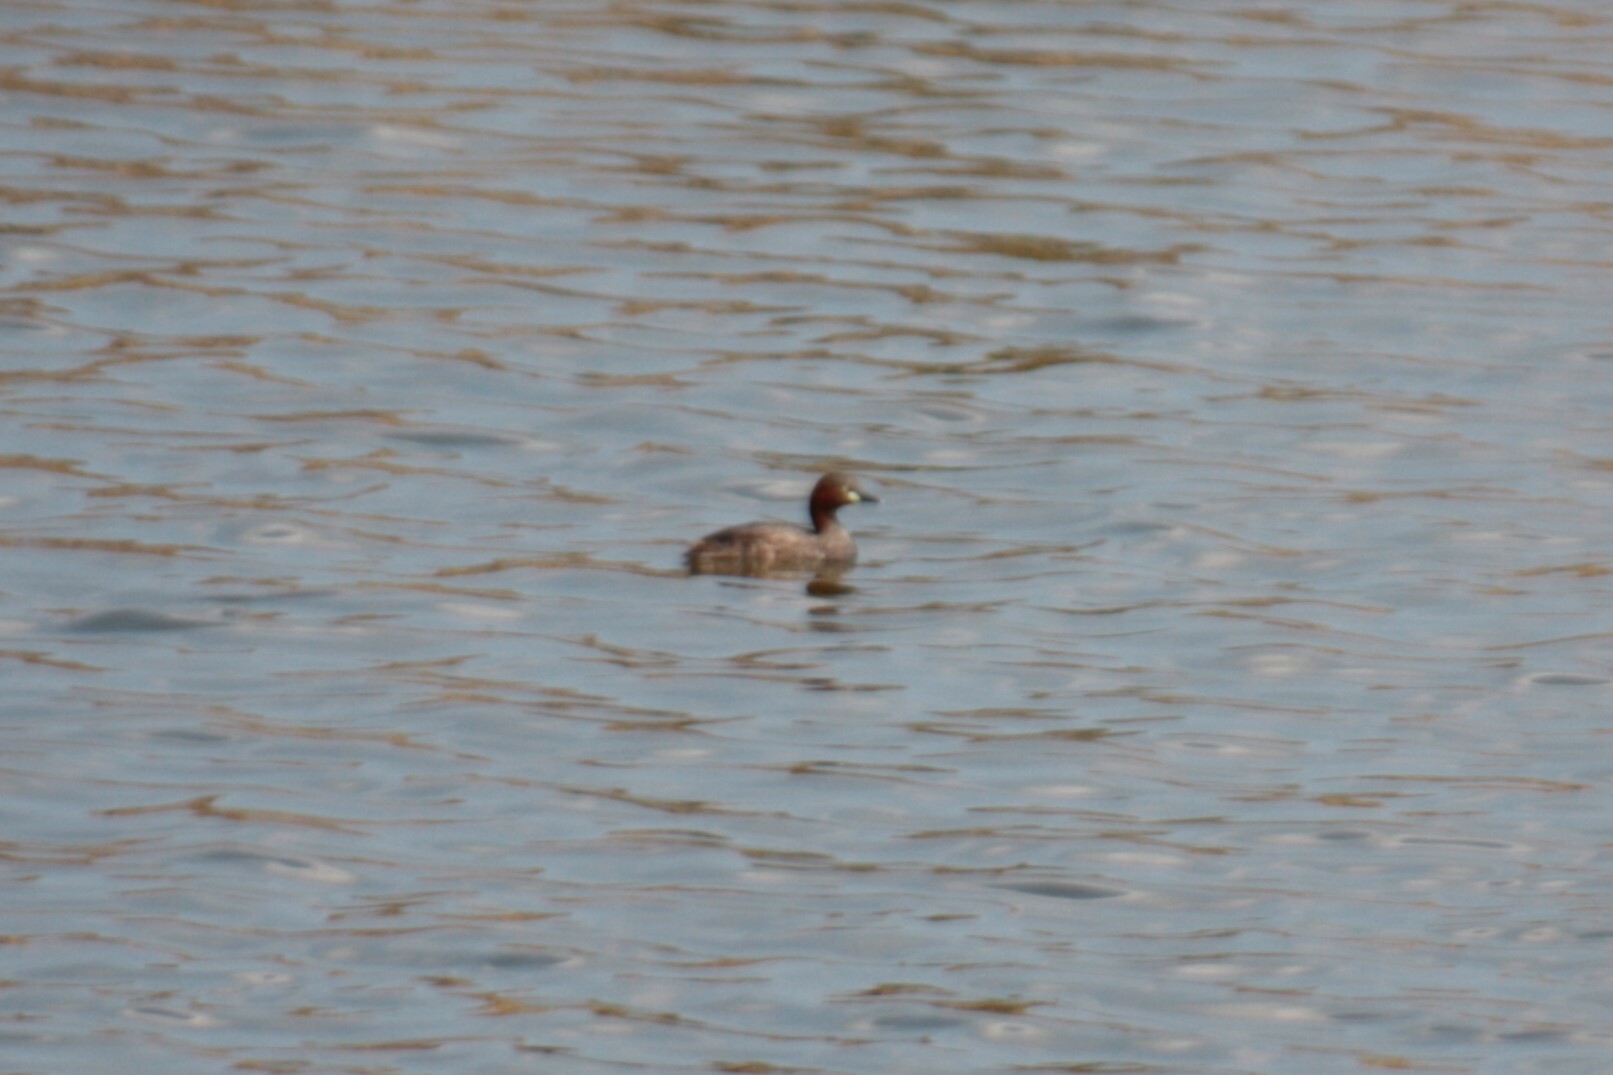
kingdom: Animalia
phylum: Chordata
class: Aves
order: Podicipediformes
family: Podicipedidae
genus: Tachybaptus
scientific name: Tachybaptus ruficollis
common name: Little grebe
